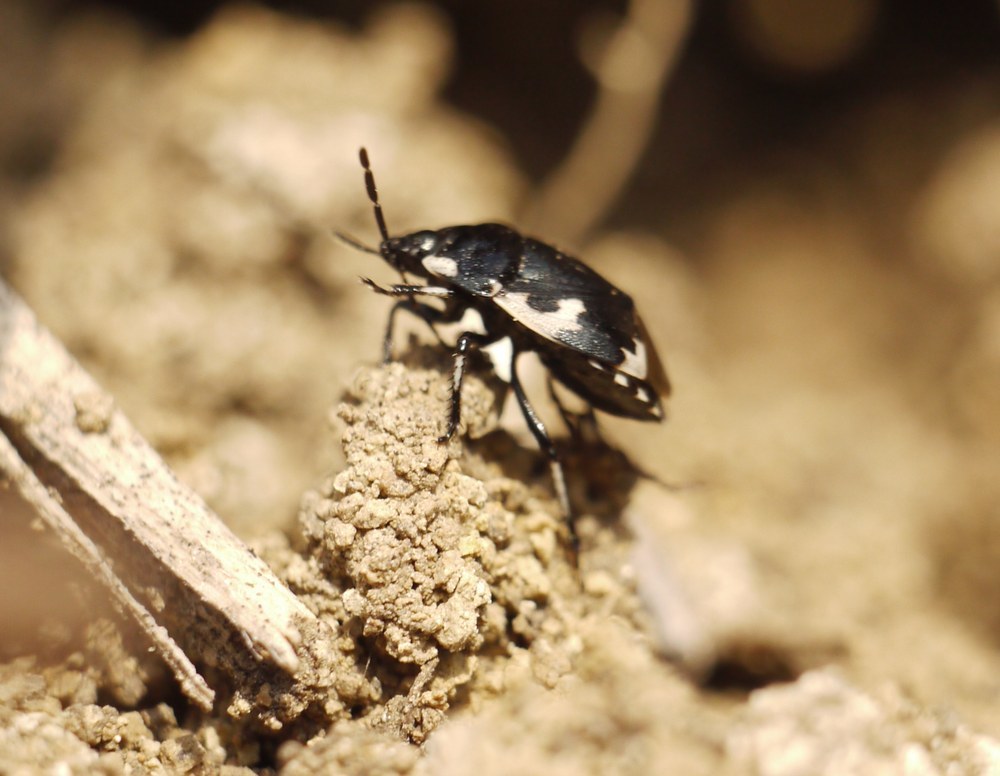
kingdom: Animalia
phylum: Arthropoda
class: Insecta
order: Hemiptera
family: Cydnidae
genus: Tritomegas
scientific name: Tritomegas bicolor
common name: Pied shieldbug
